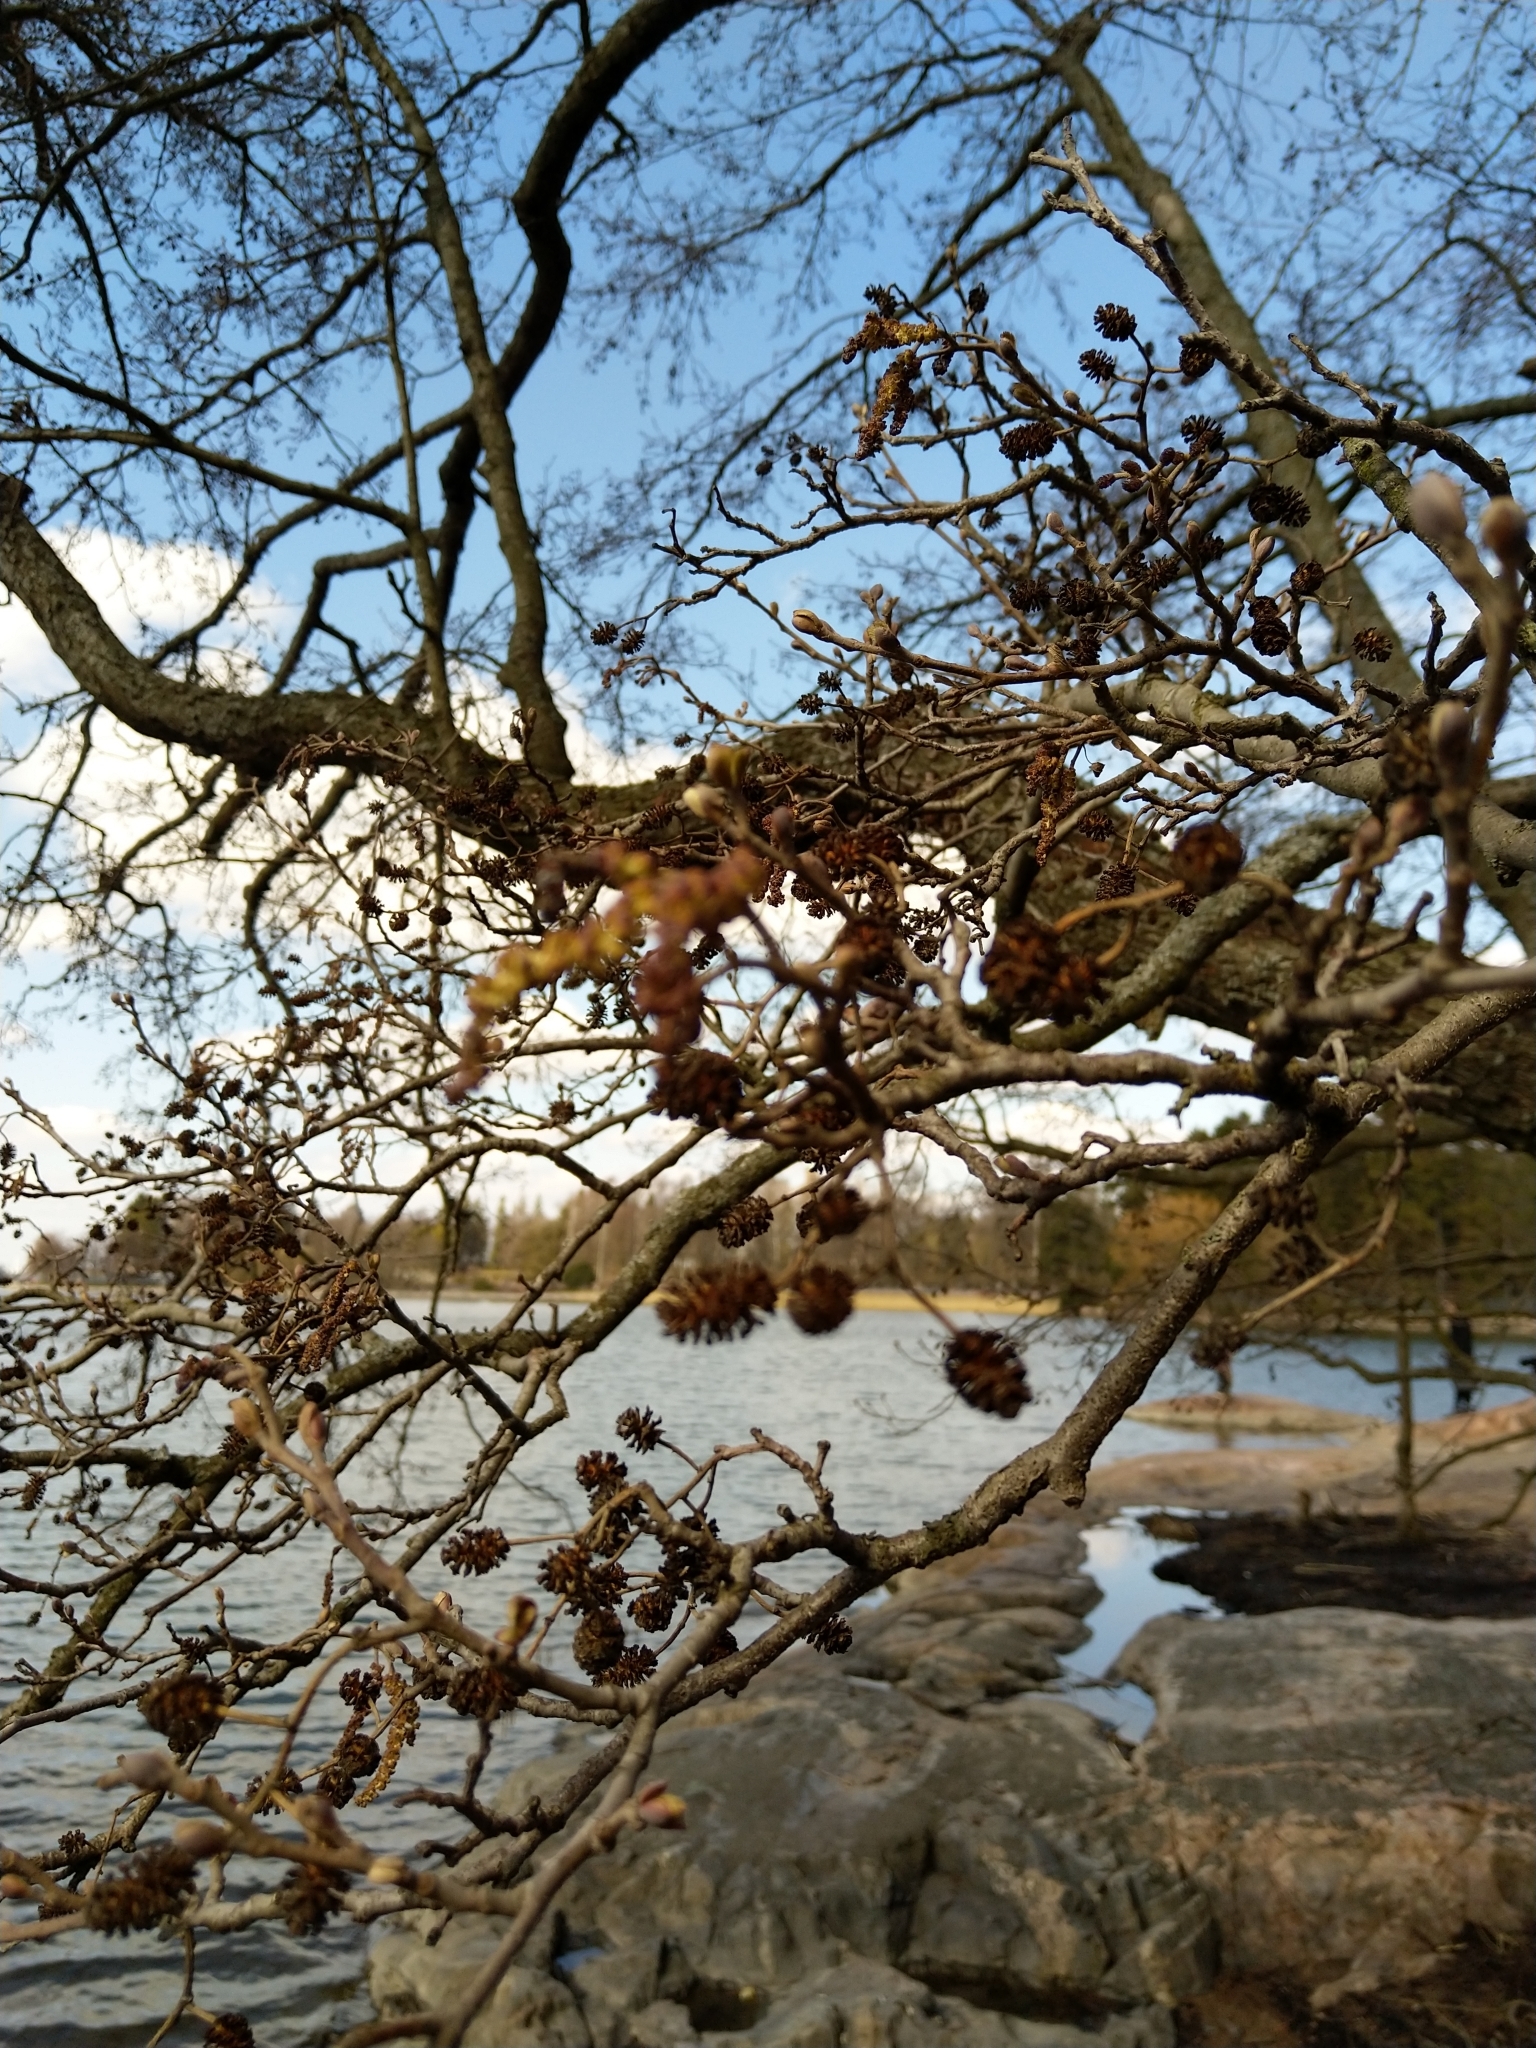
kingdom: Plantae
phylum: Tracheophyta
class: Magnoliopsida
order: Fagales
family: Betulaceae
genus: Alnus
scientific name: Alnus glutinosa
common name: Black alder
